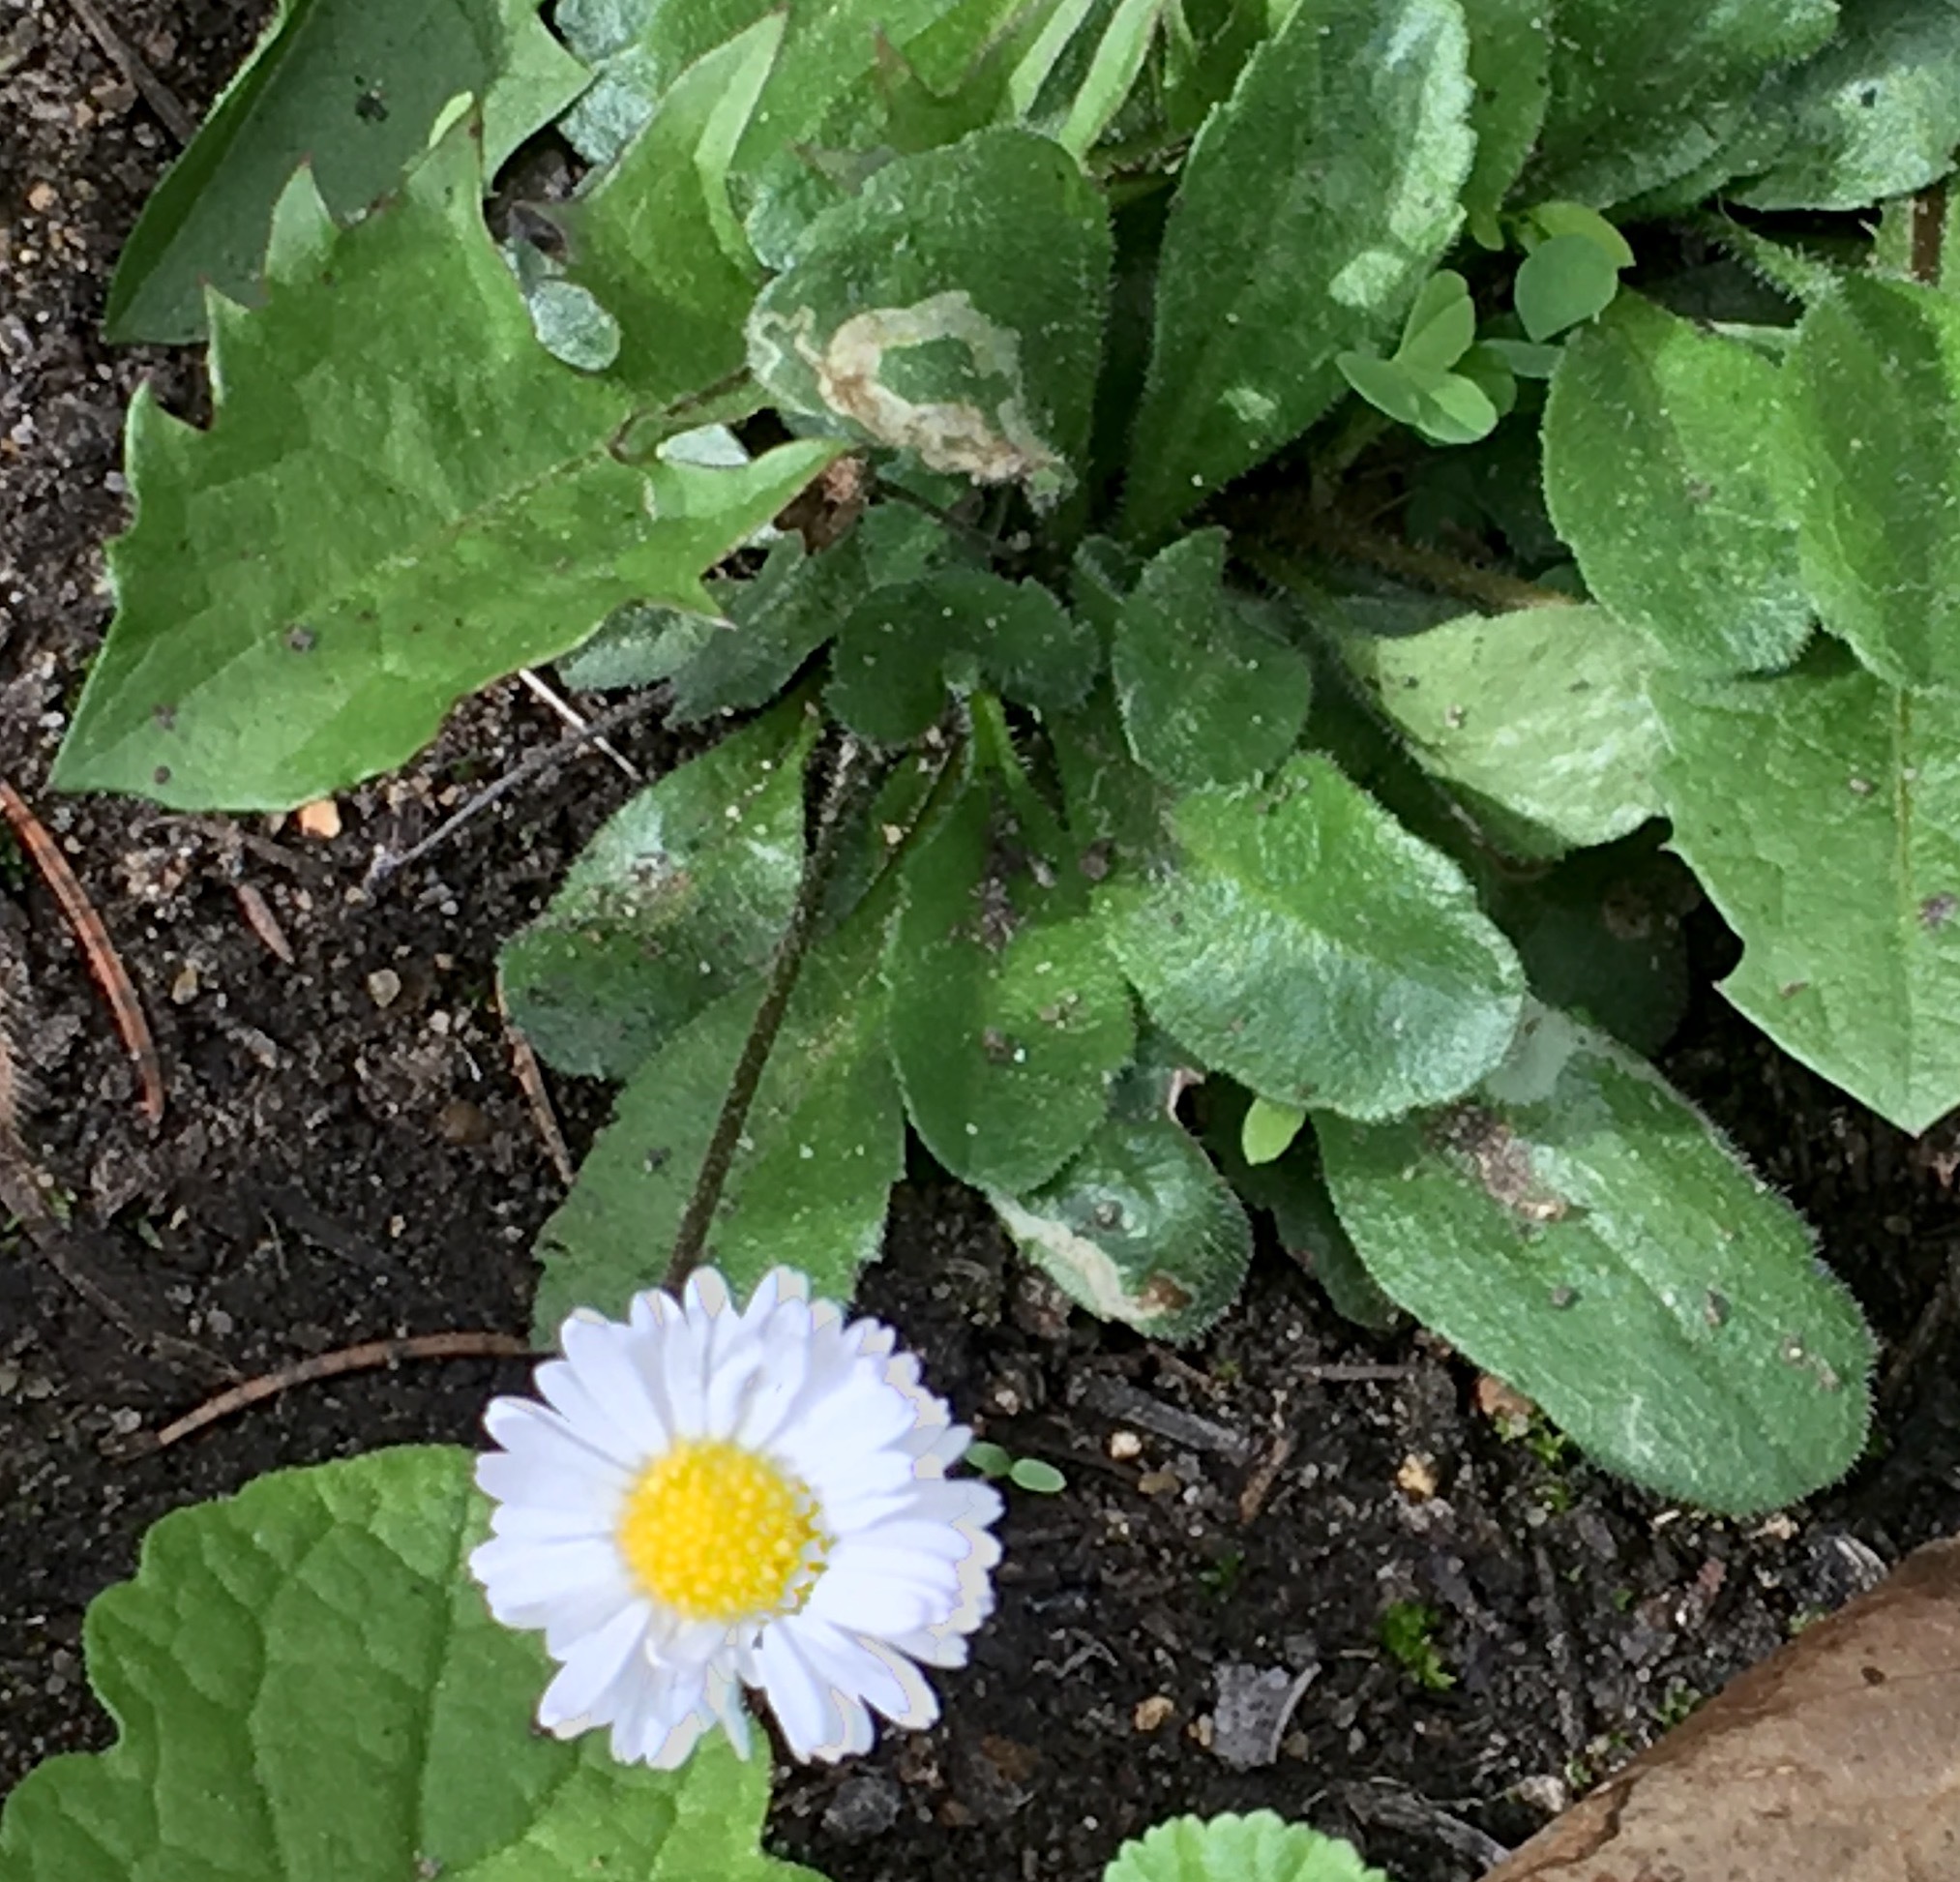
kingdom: Plantae
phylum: Tracheophyta
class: Magnoliopsida
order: Asterales
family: Asteraceae
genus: Bellis
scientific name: Bellis perennis
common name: Lawndaisy
